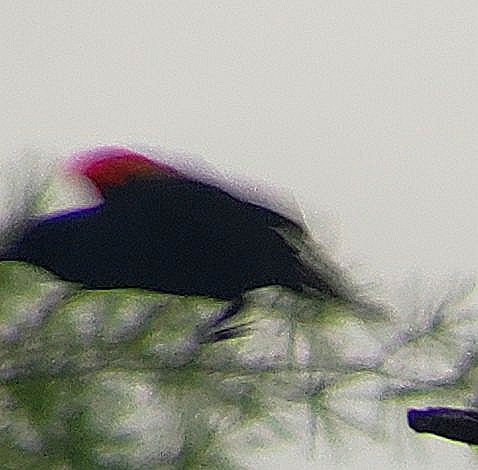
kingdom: Animalia
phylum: Chordata
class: Aves
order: Passeriformes
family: Icteridae
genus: Agelaius
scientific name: Agelaius phoeniceus
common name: Red-winged blackbird
